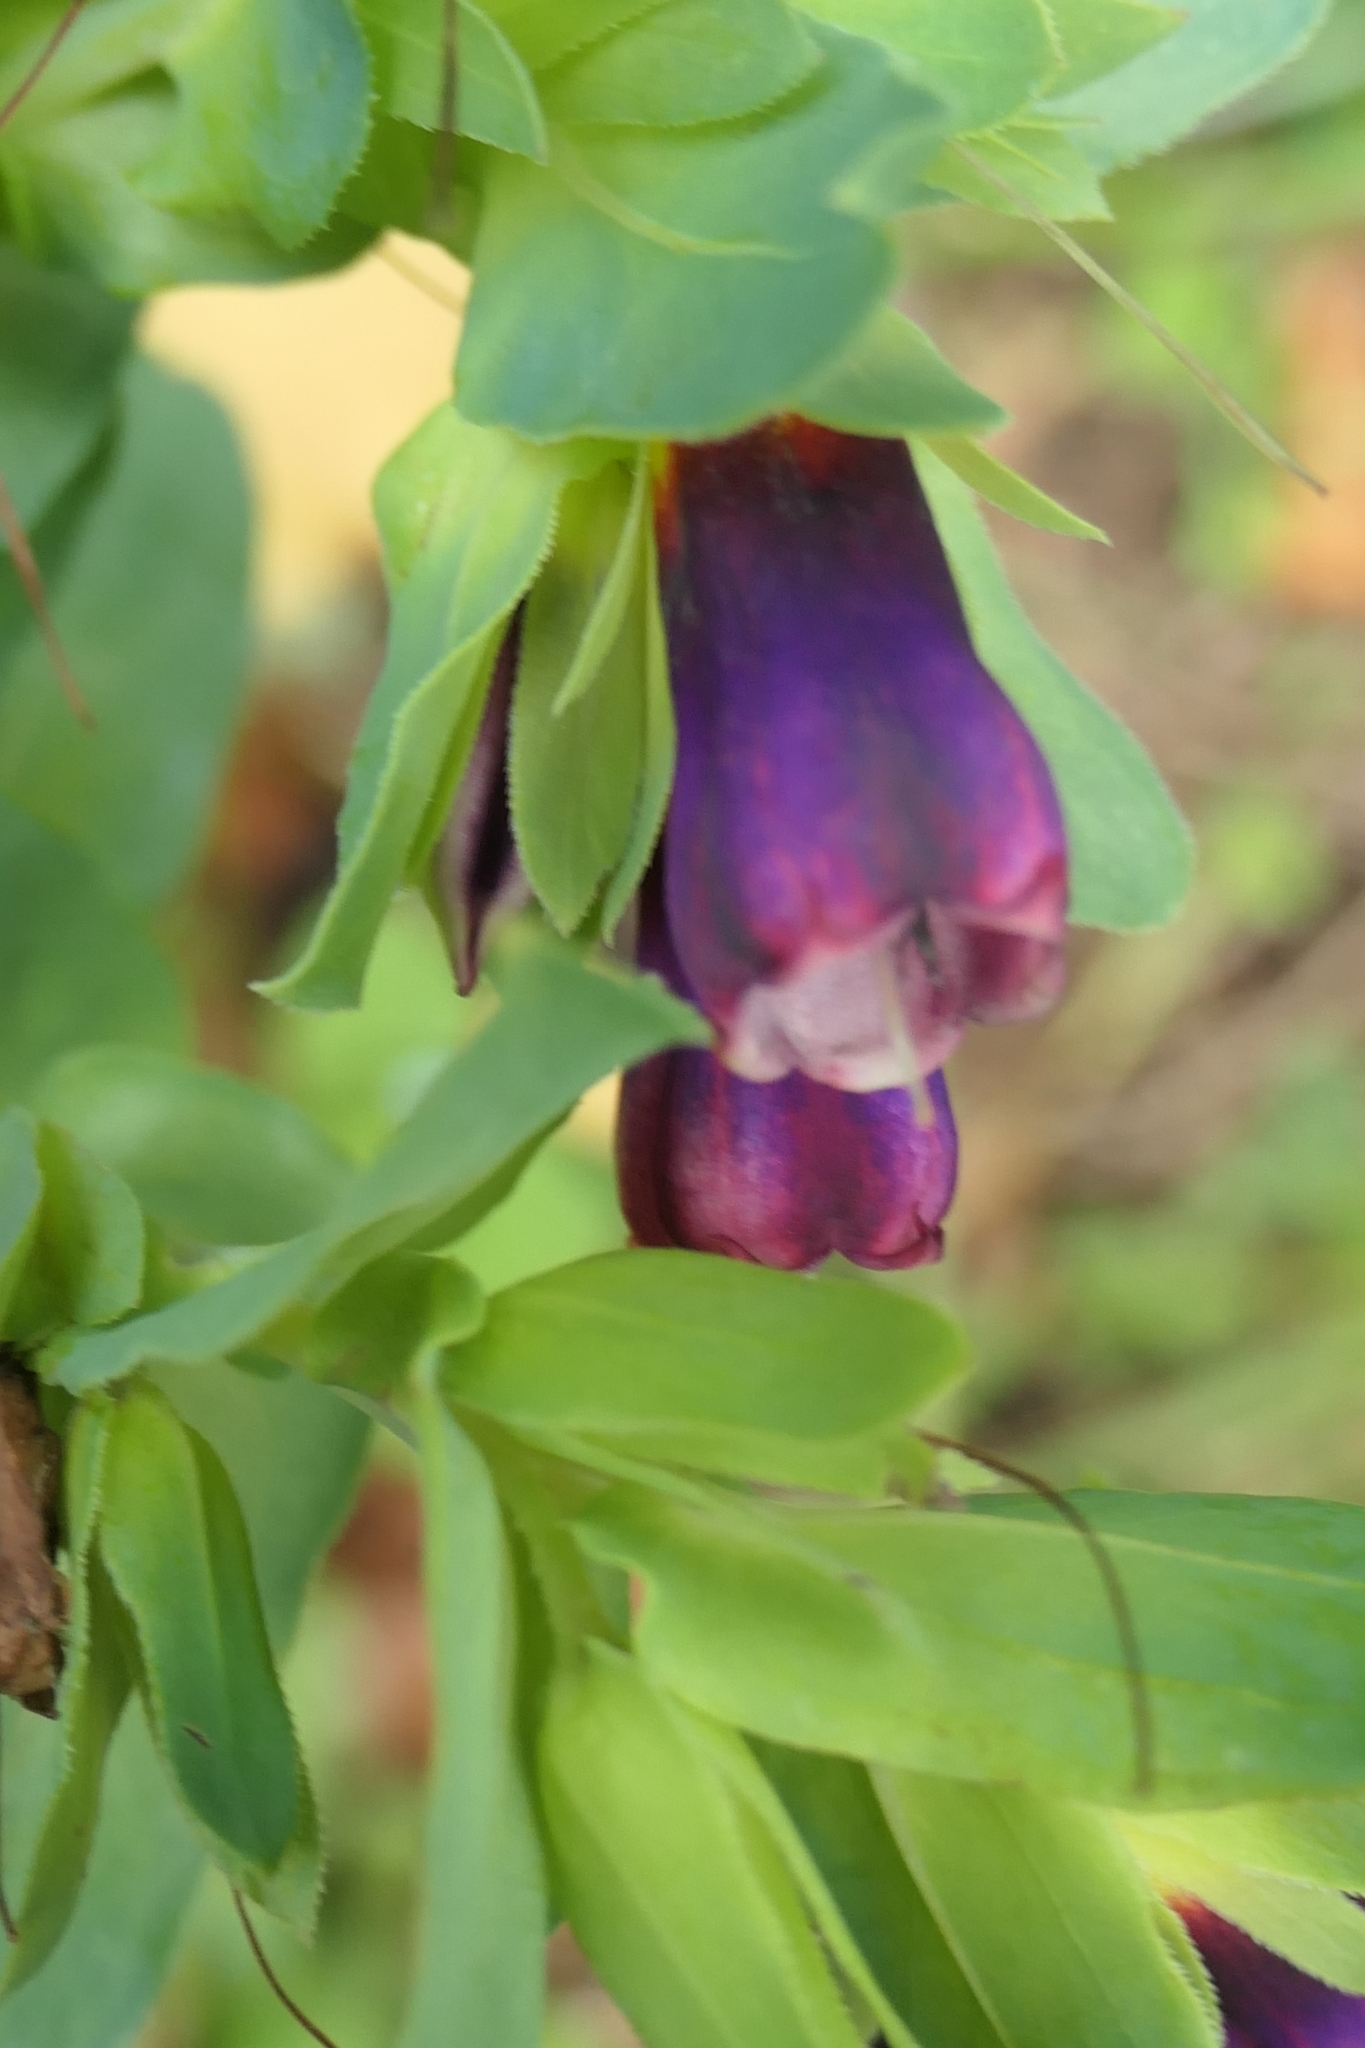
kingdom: Plantae
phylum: Tracheophyta
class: Magnoliopsida
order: Boraginales
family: Boraginaceae
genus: Cerinthe
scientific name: Cerinthe major
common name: Greater honeywort
